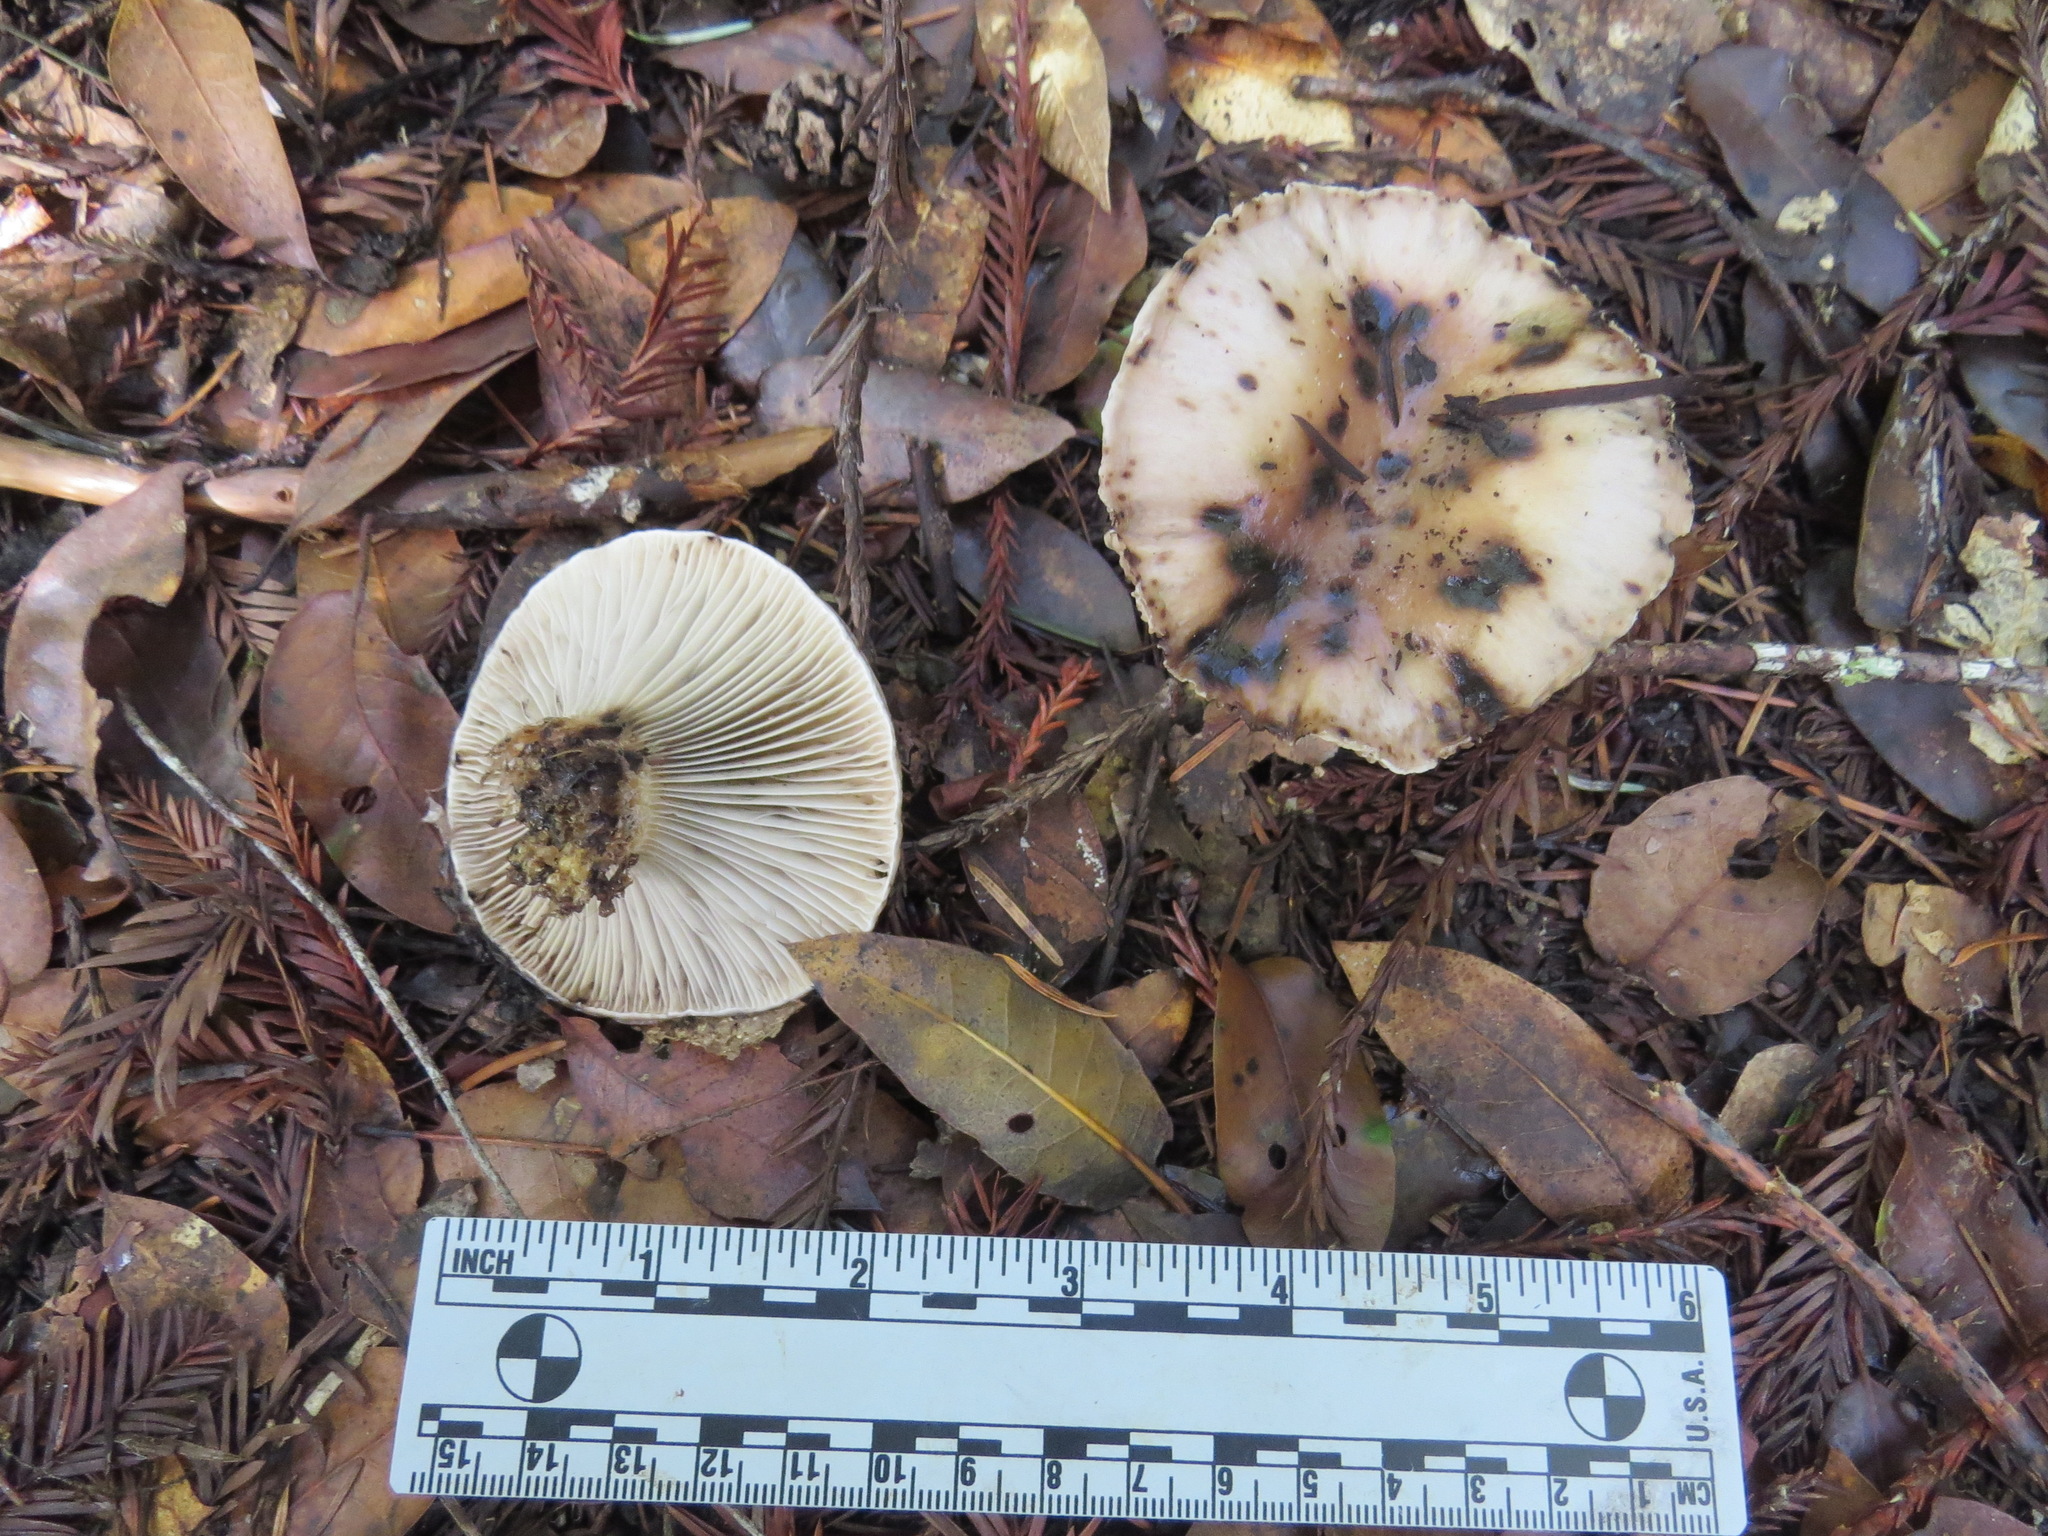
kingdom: Fungi
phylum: Basidiomycota
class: Agaricomycetes
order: Boletales
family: Gomphidiaceae
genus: Gomphidius
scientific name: Gomphidius oregonensis
